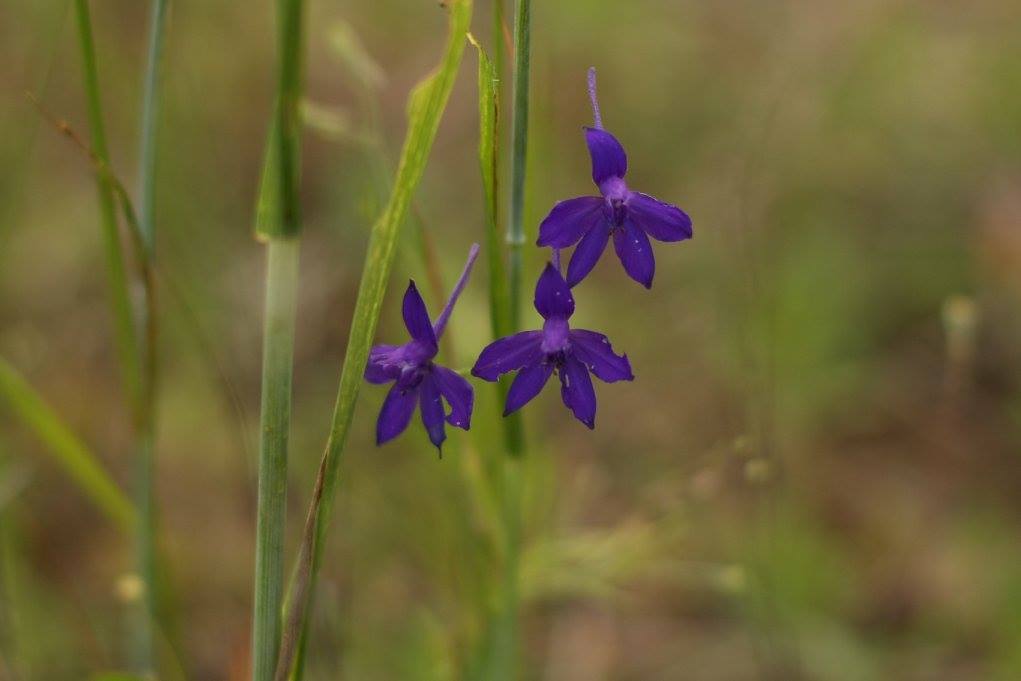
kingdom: Plantae
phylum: Tracheophyta
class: Magnoliopsida
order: Ranunculales
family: Ranunculaceae
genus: Delphinium
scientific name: Delphinium consolida
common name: Branching larkspur
